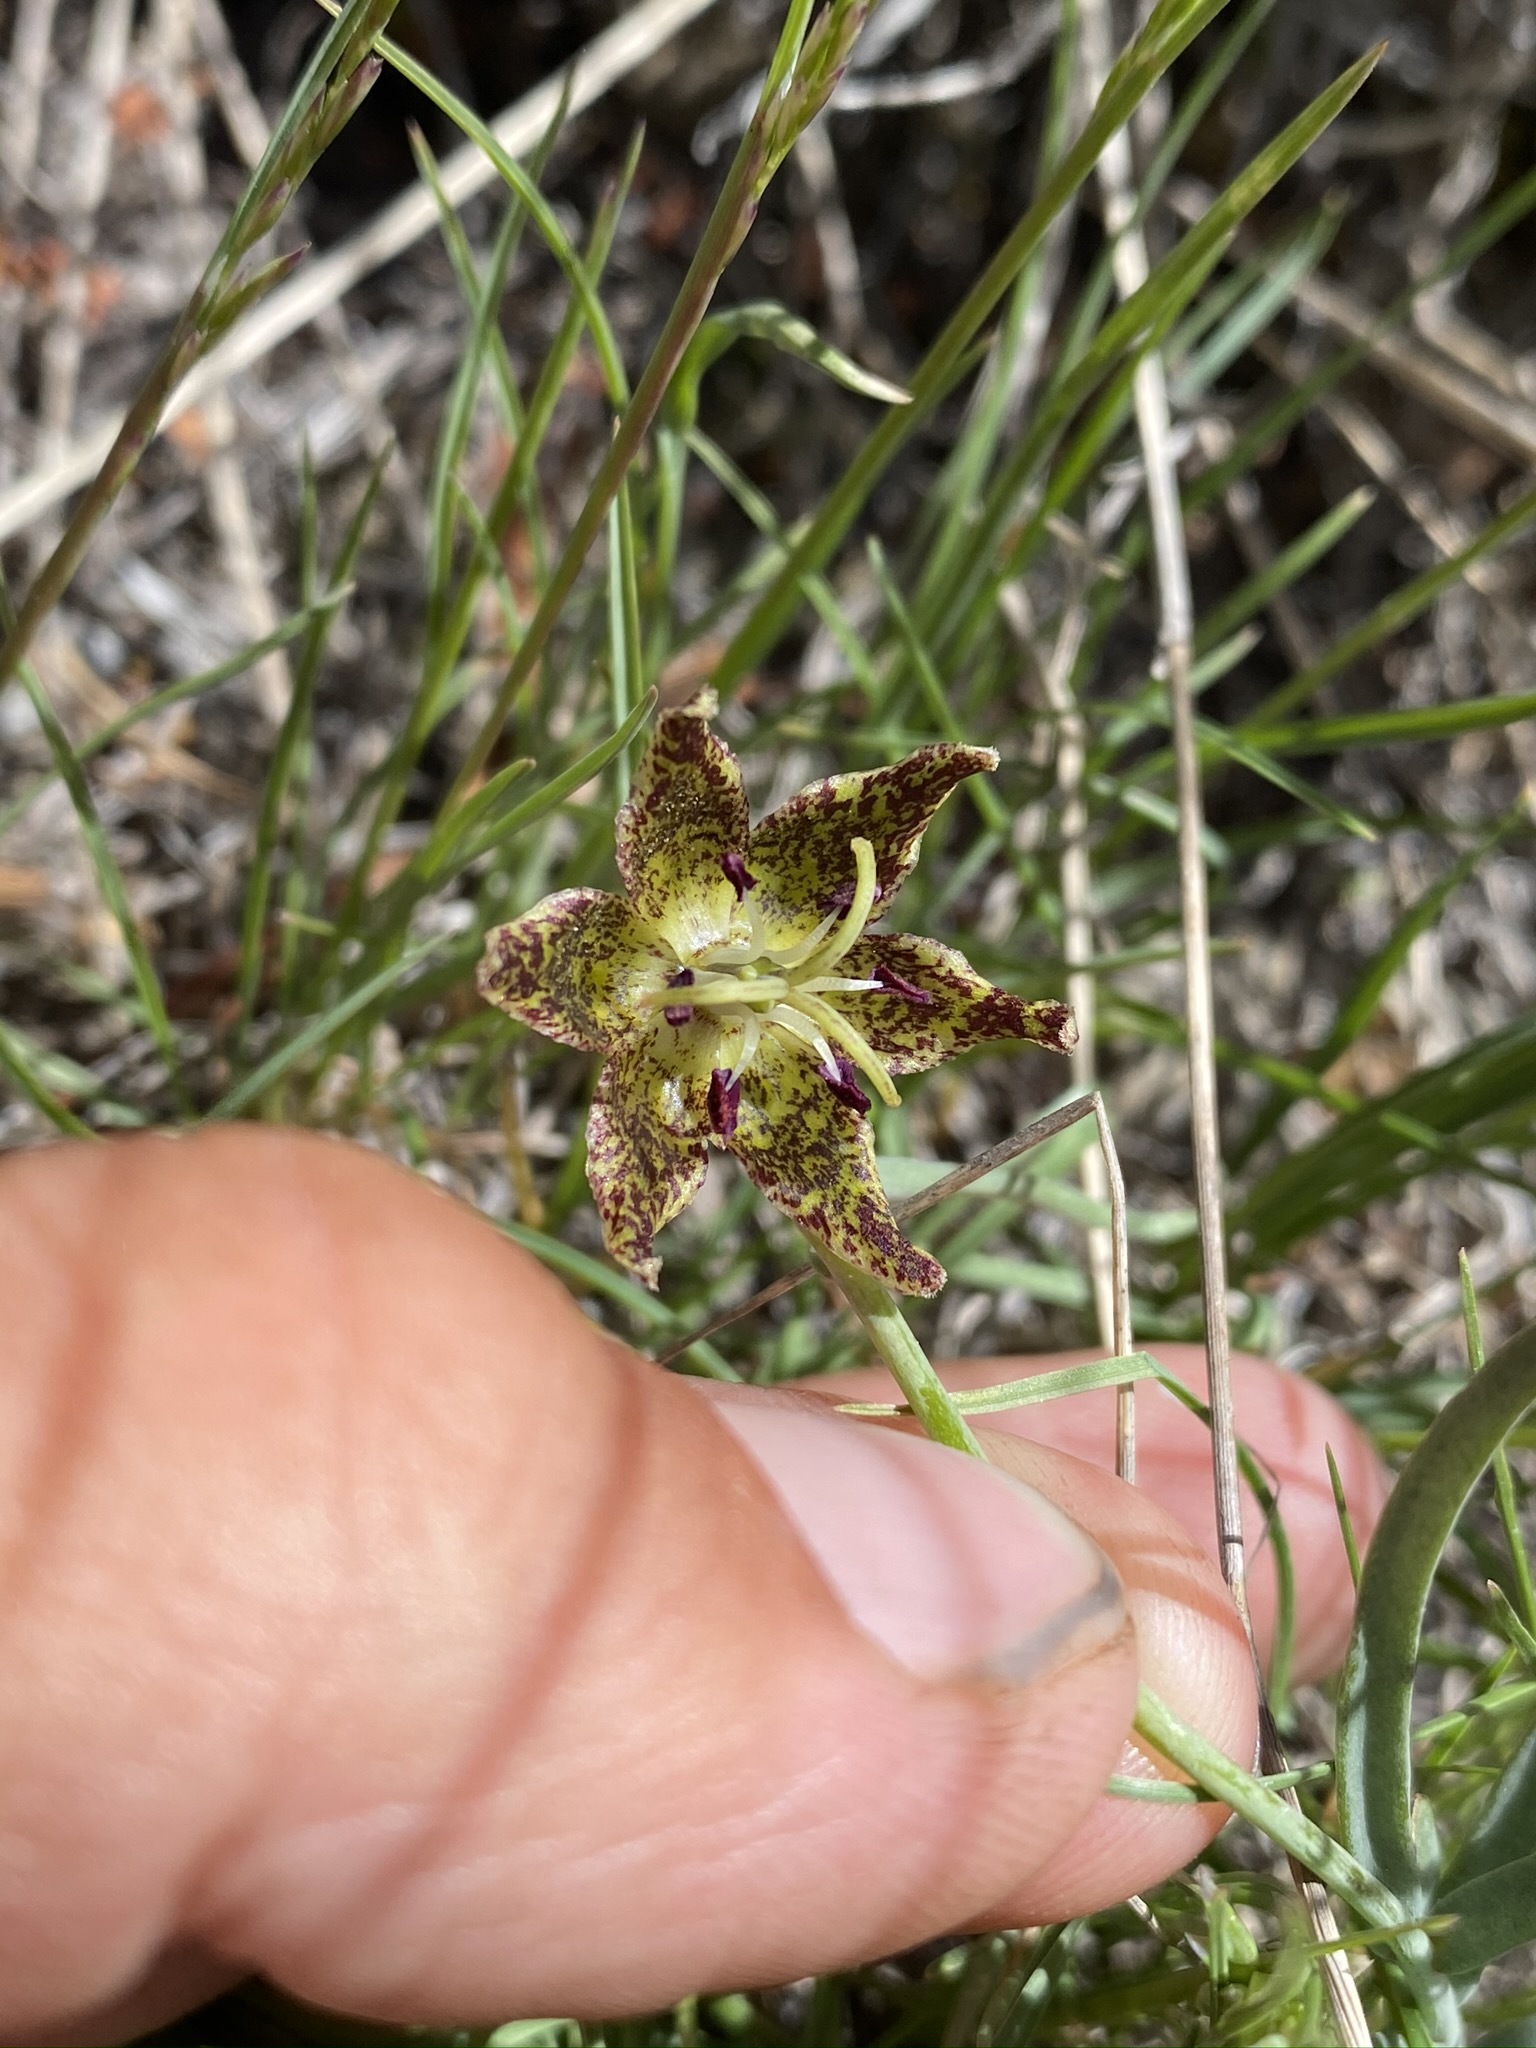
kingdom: Plantae
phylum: Tracheophyta
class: Liliopsida
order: Liliales
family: Liliaceae
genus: Fritillaria
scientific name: Fritillaria atropurpurea
